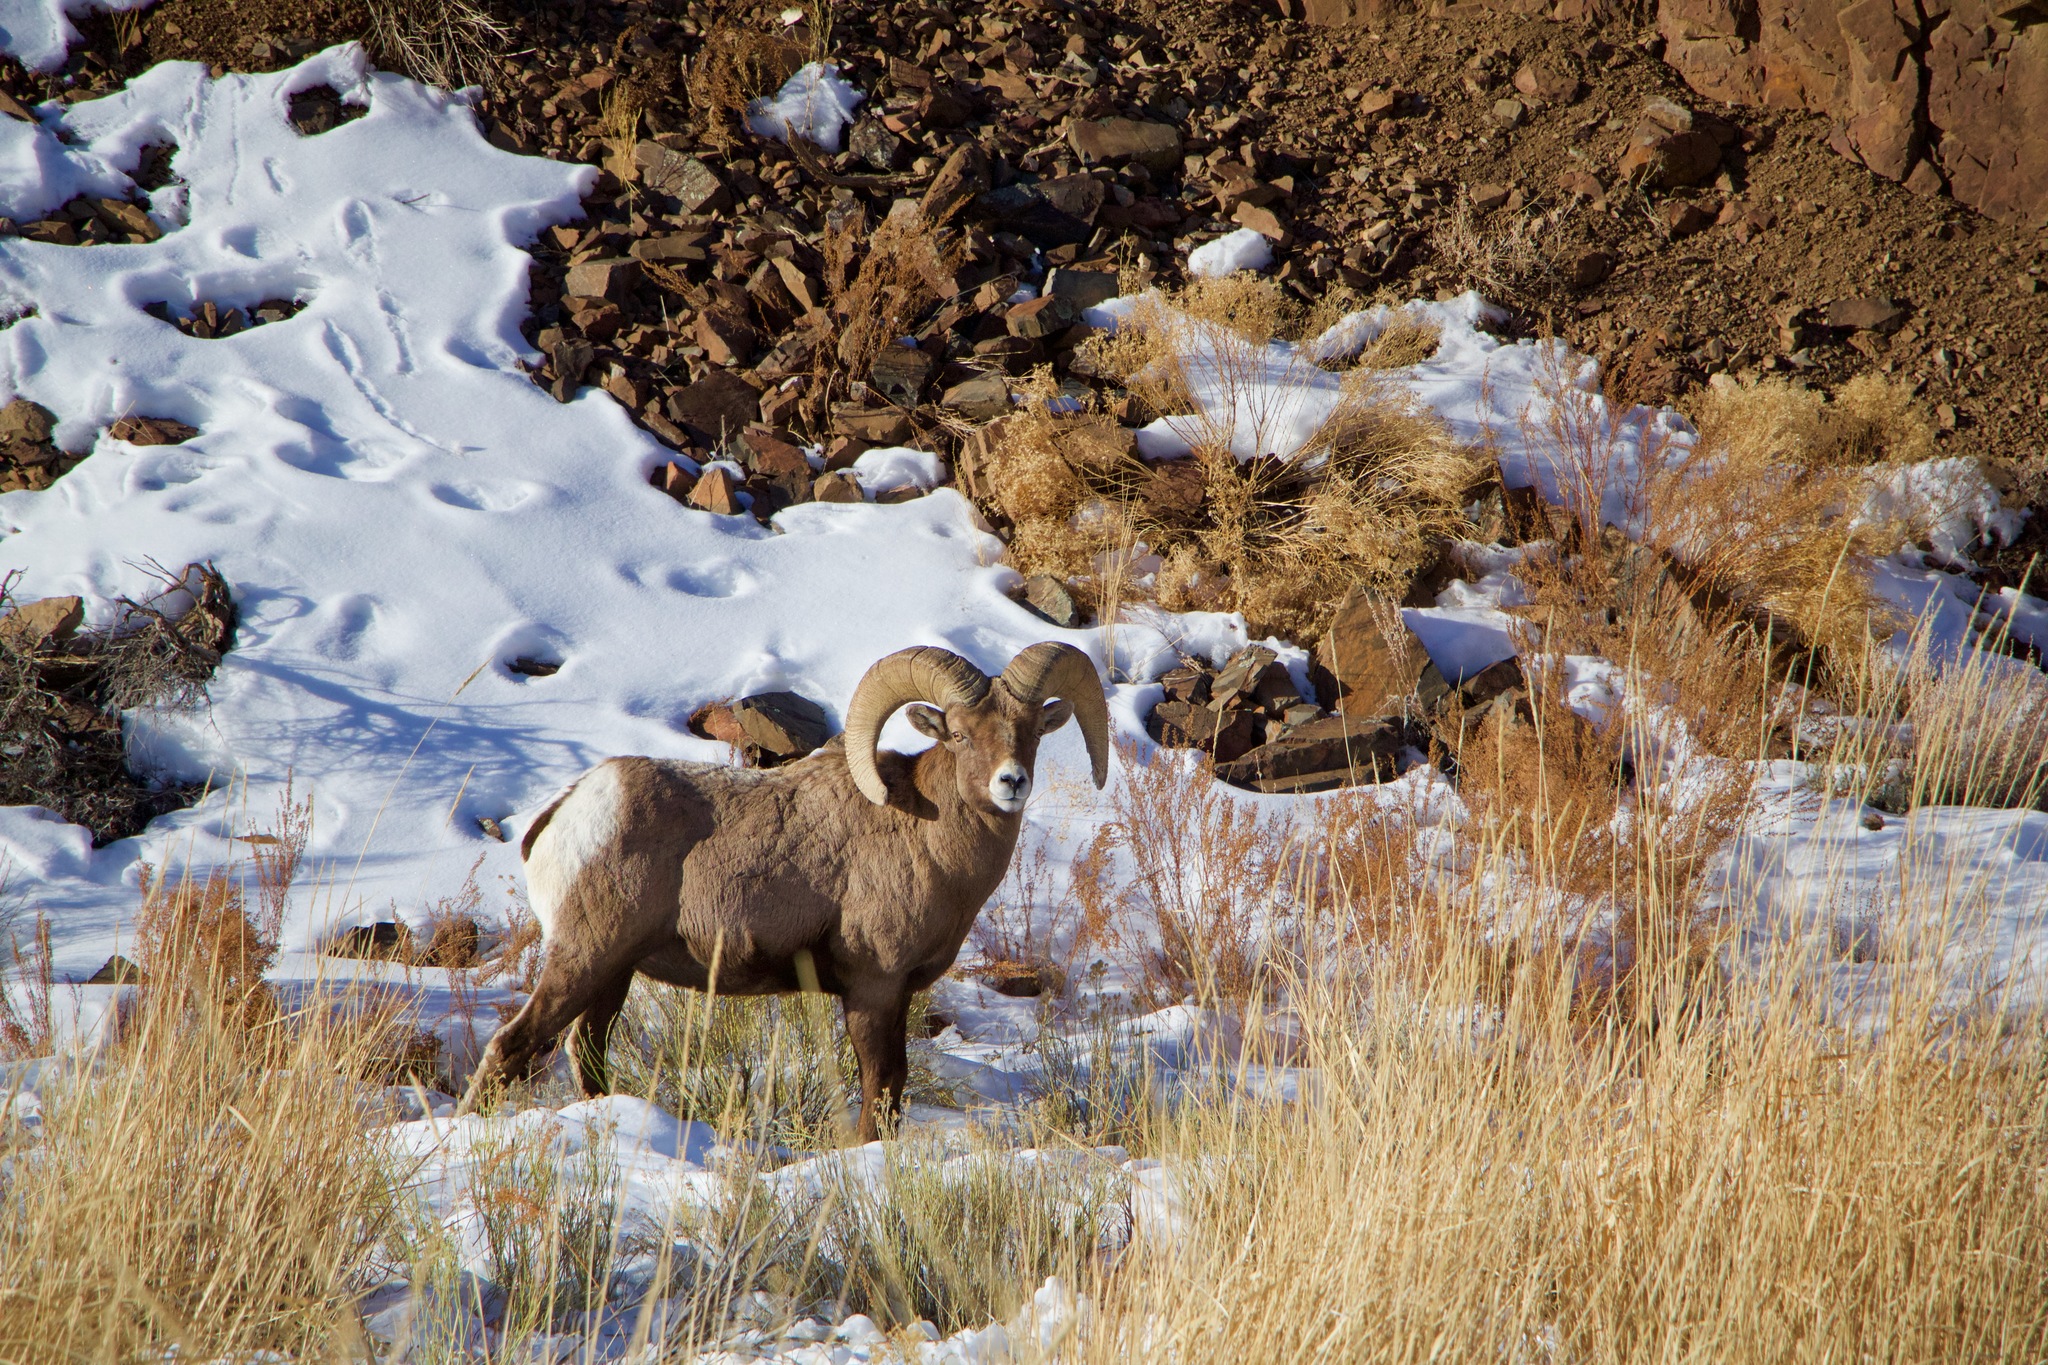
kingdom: Animalia
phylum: Chordata
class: Mammalia
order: Artiodactyla
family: Bovidae
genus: Ovis
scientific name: Ovis canadensis
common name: Bighorn sheep
